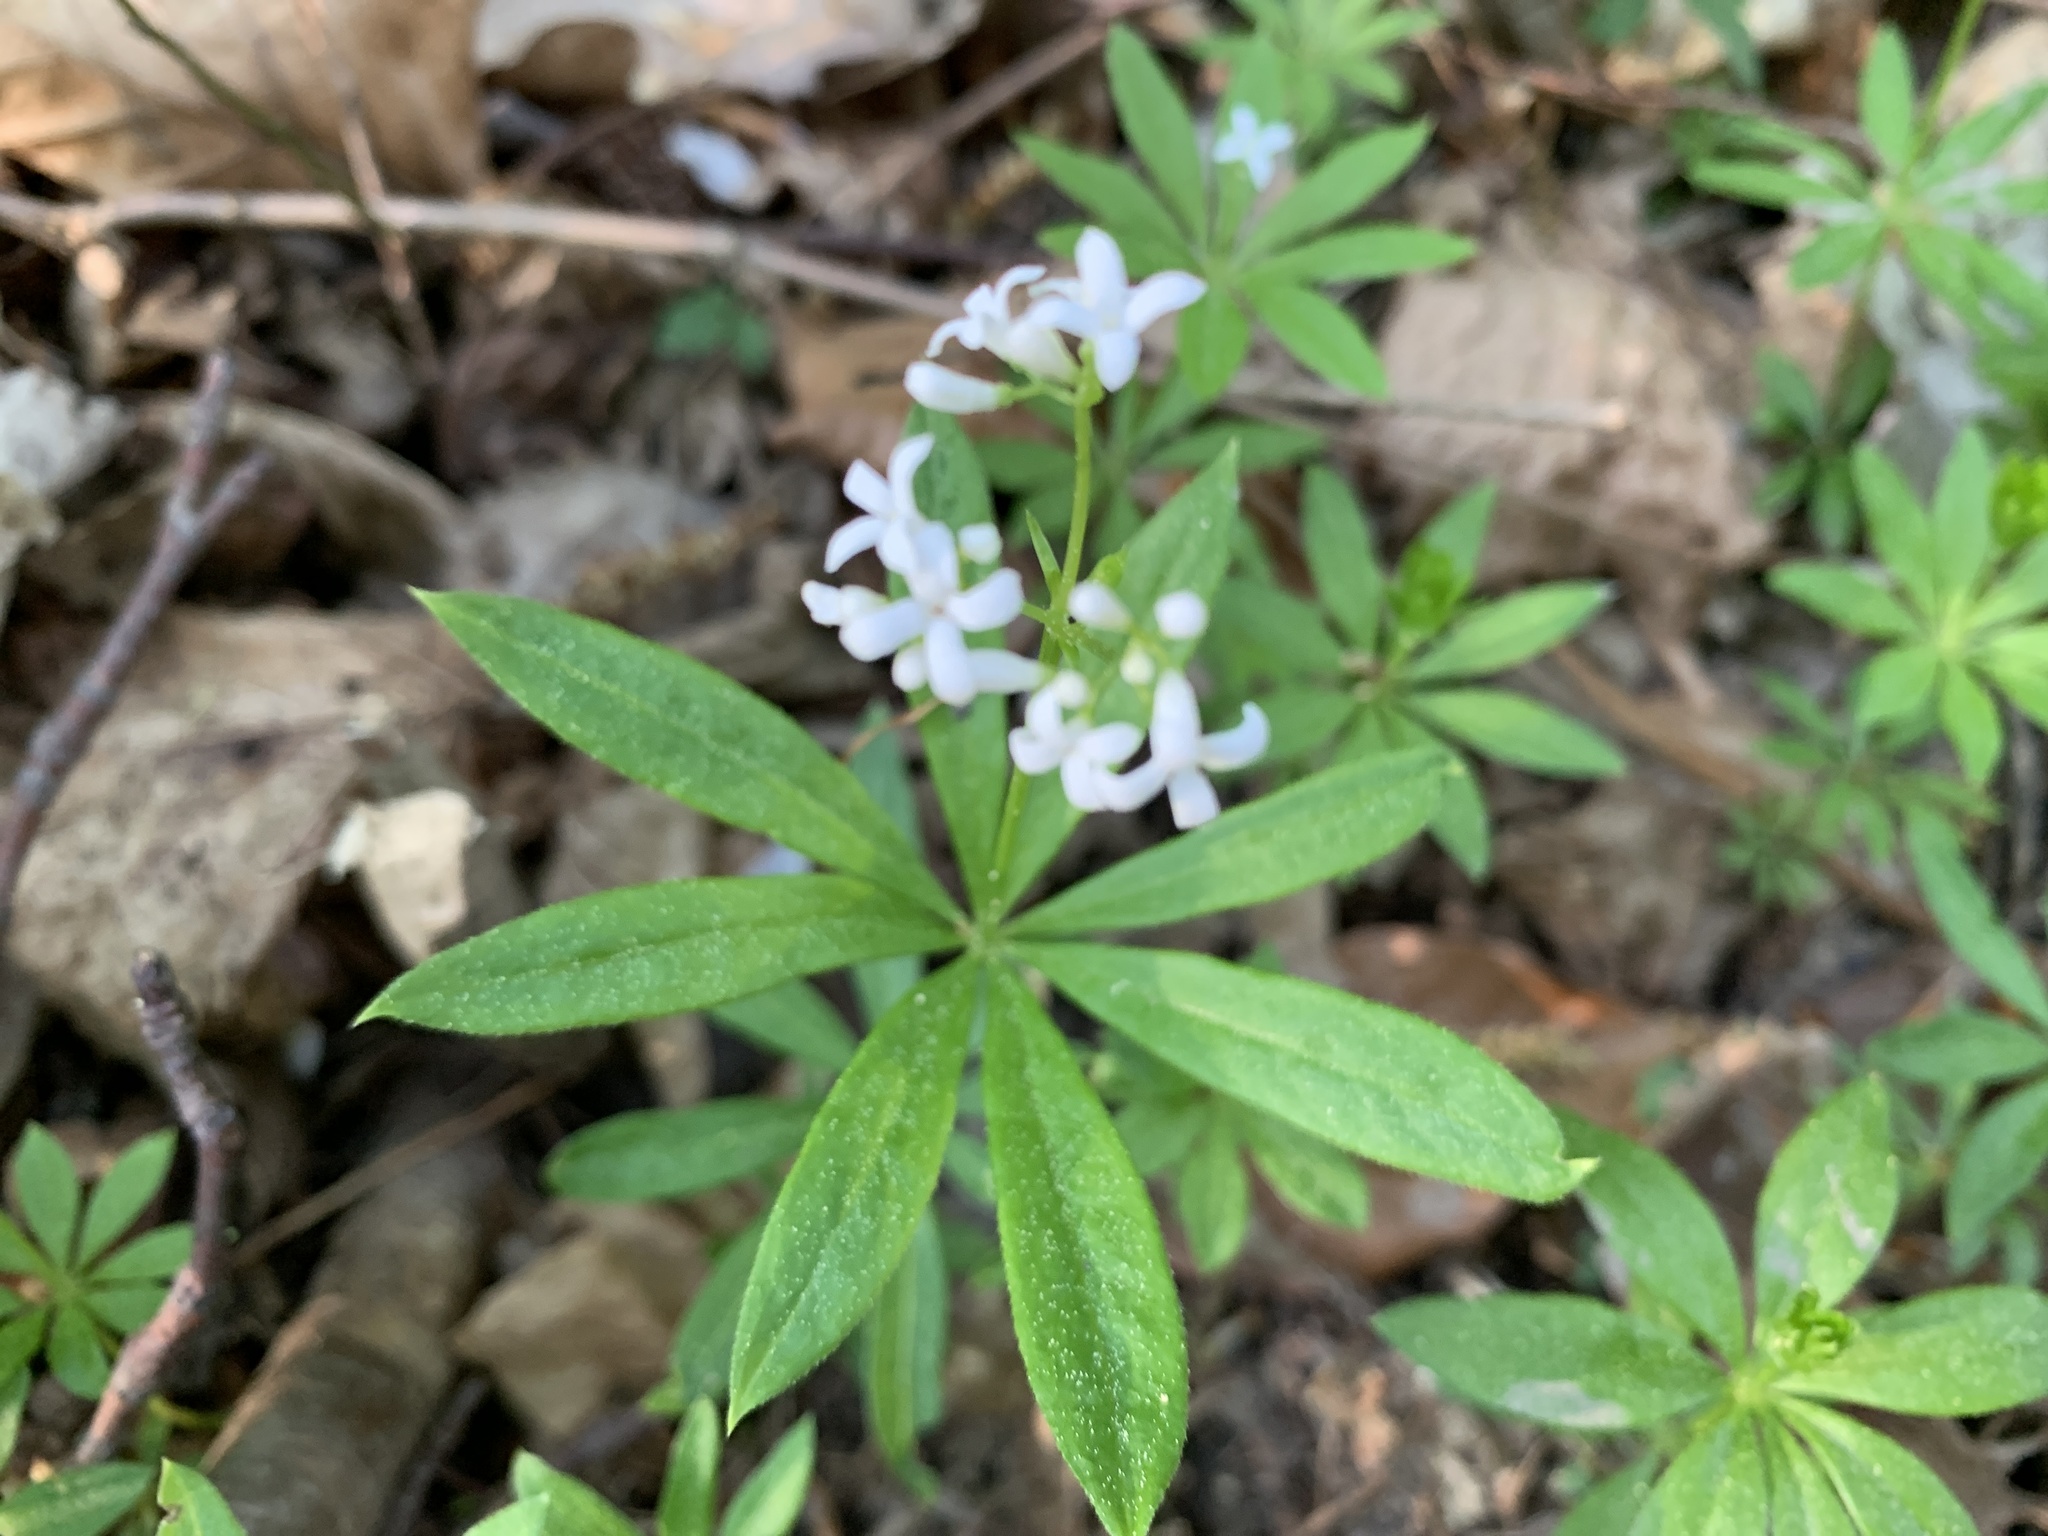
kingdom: Plantae
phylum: Tracheophyta
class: Magnoliopsida
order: Gentianales
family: Rubiaceae
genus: Galium
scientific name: Galium odoratum
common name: Sweet woodruff
